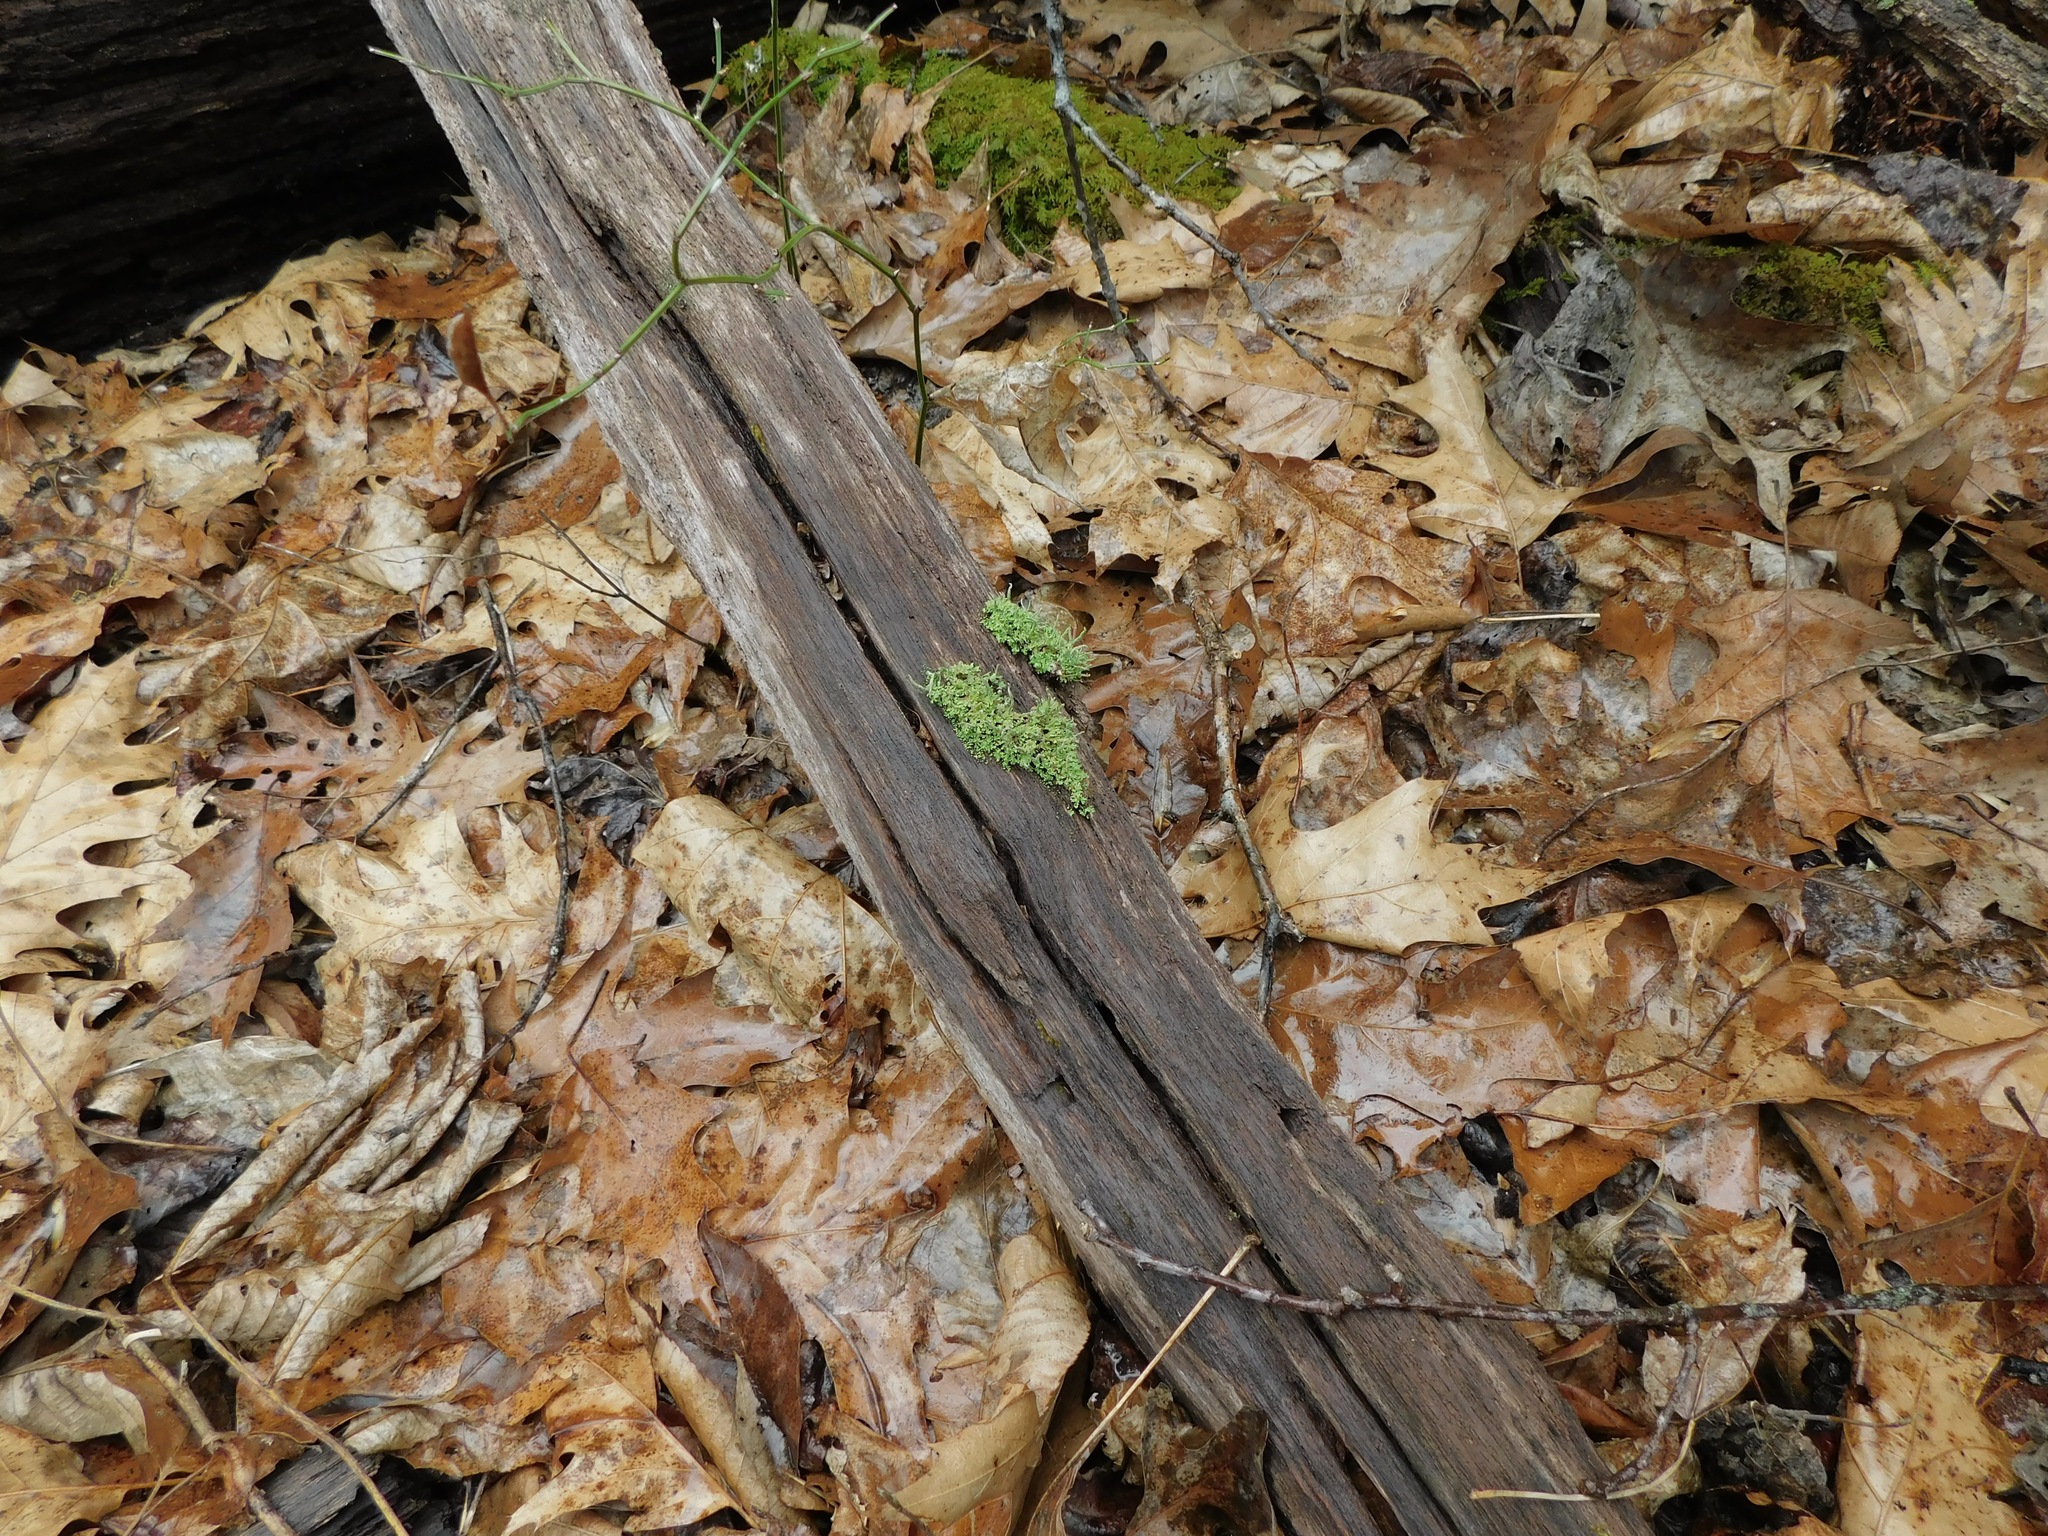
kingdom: Fungi
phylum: Ascomycota
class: Lecanoromycetes
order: Lecanorales
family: Cladoniaceae
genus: Cladonia
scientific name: Cladonia ochrochlora
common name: Smooth-footed powderhorn
